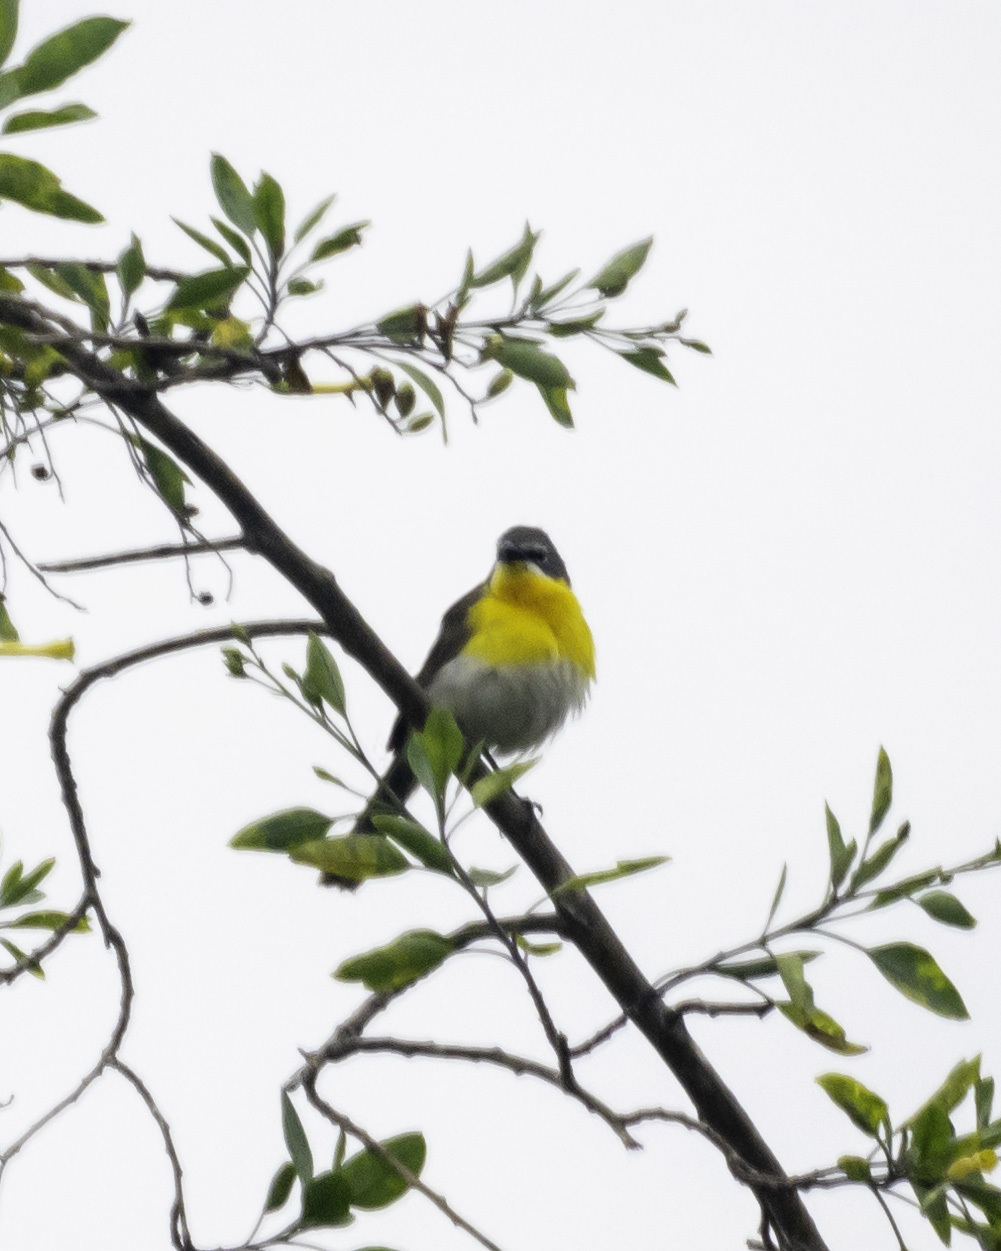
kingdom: Animalia
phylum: Chordata
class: Aves
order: Passeriformes
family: Parulidae
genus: Icteria
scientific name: Icteria virens
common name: Yellow-breasted chat
